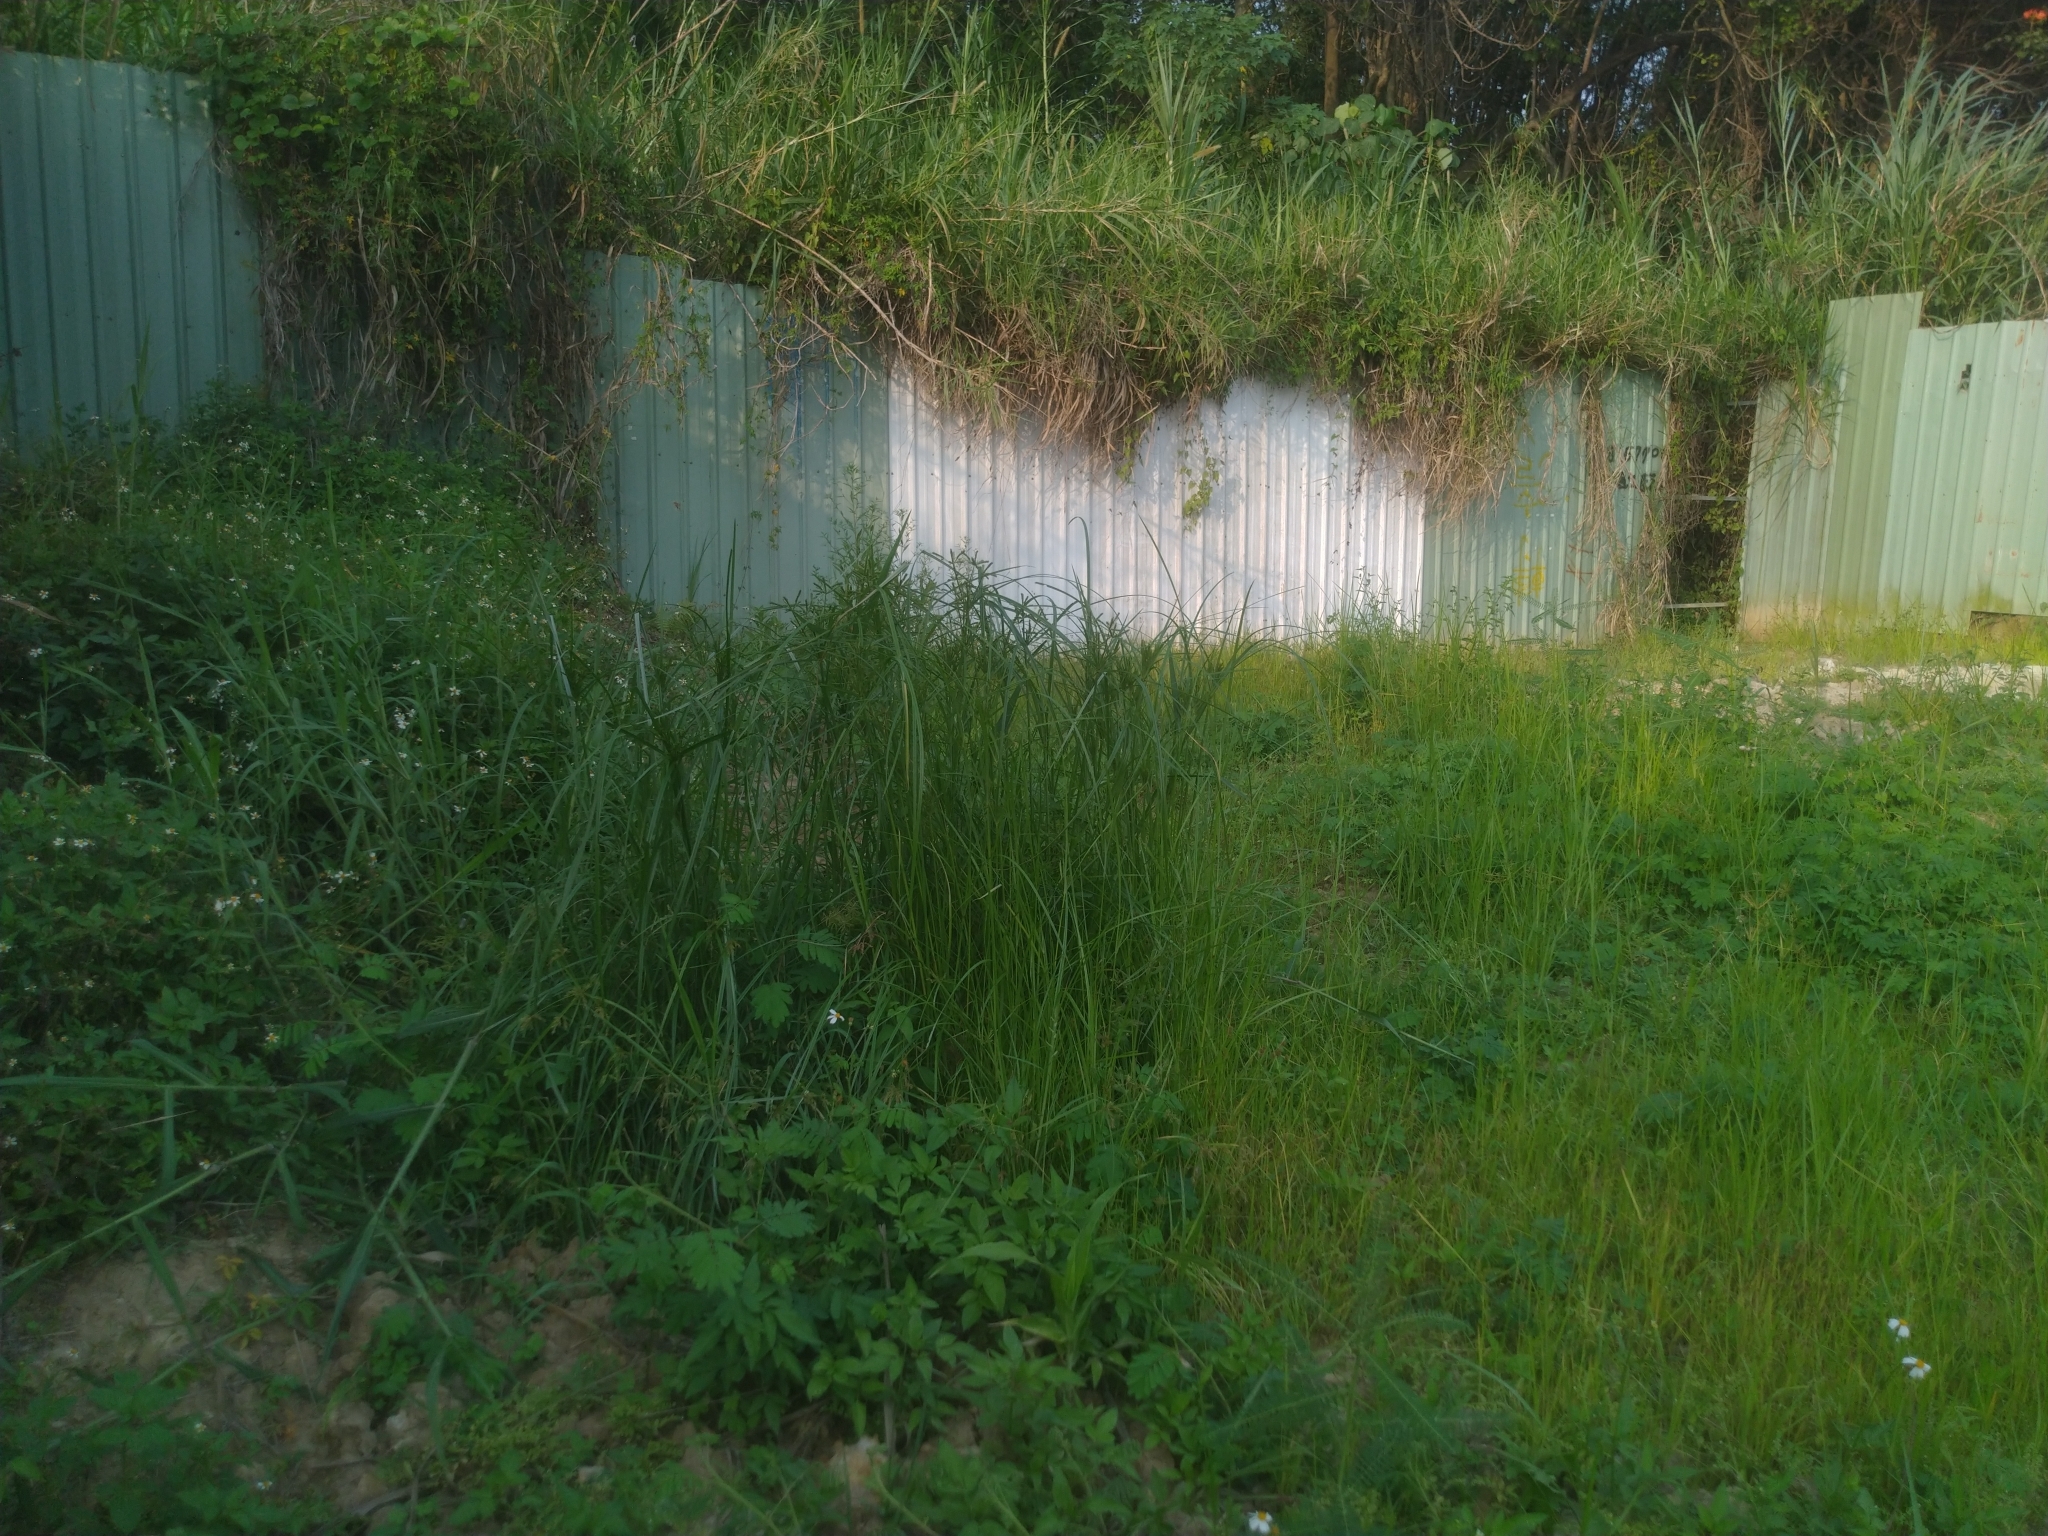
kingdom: Plantae
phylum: Tracheophyta
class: Liliopsida
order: Poales
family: Cyperaceae
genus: Cyperus
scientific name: Cyperus imbricatus
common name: Shingle flatsedge
